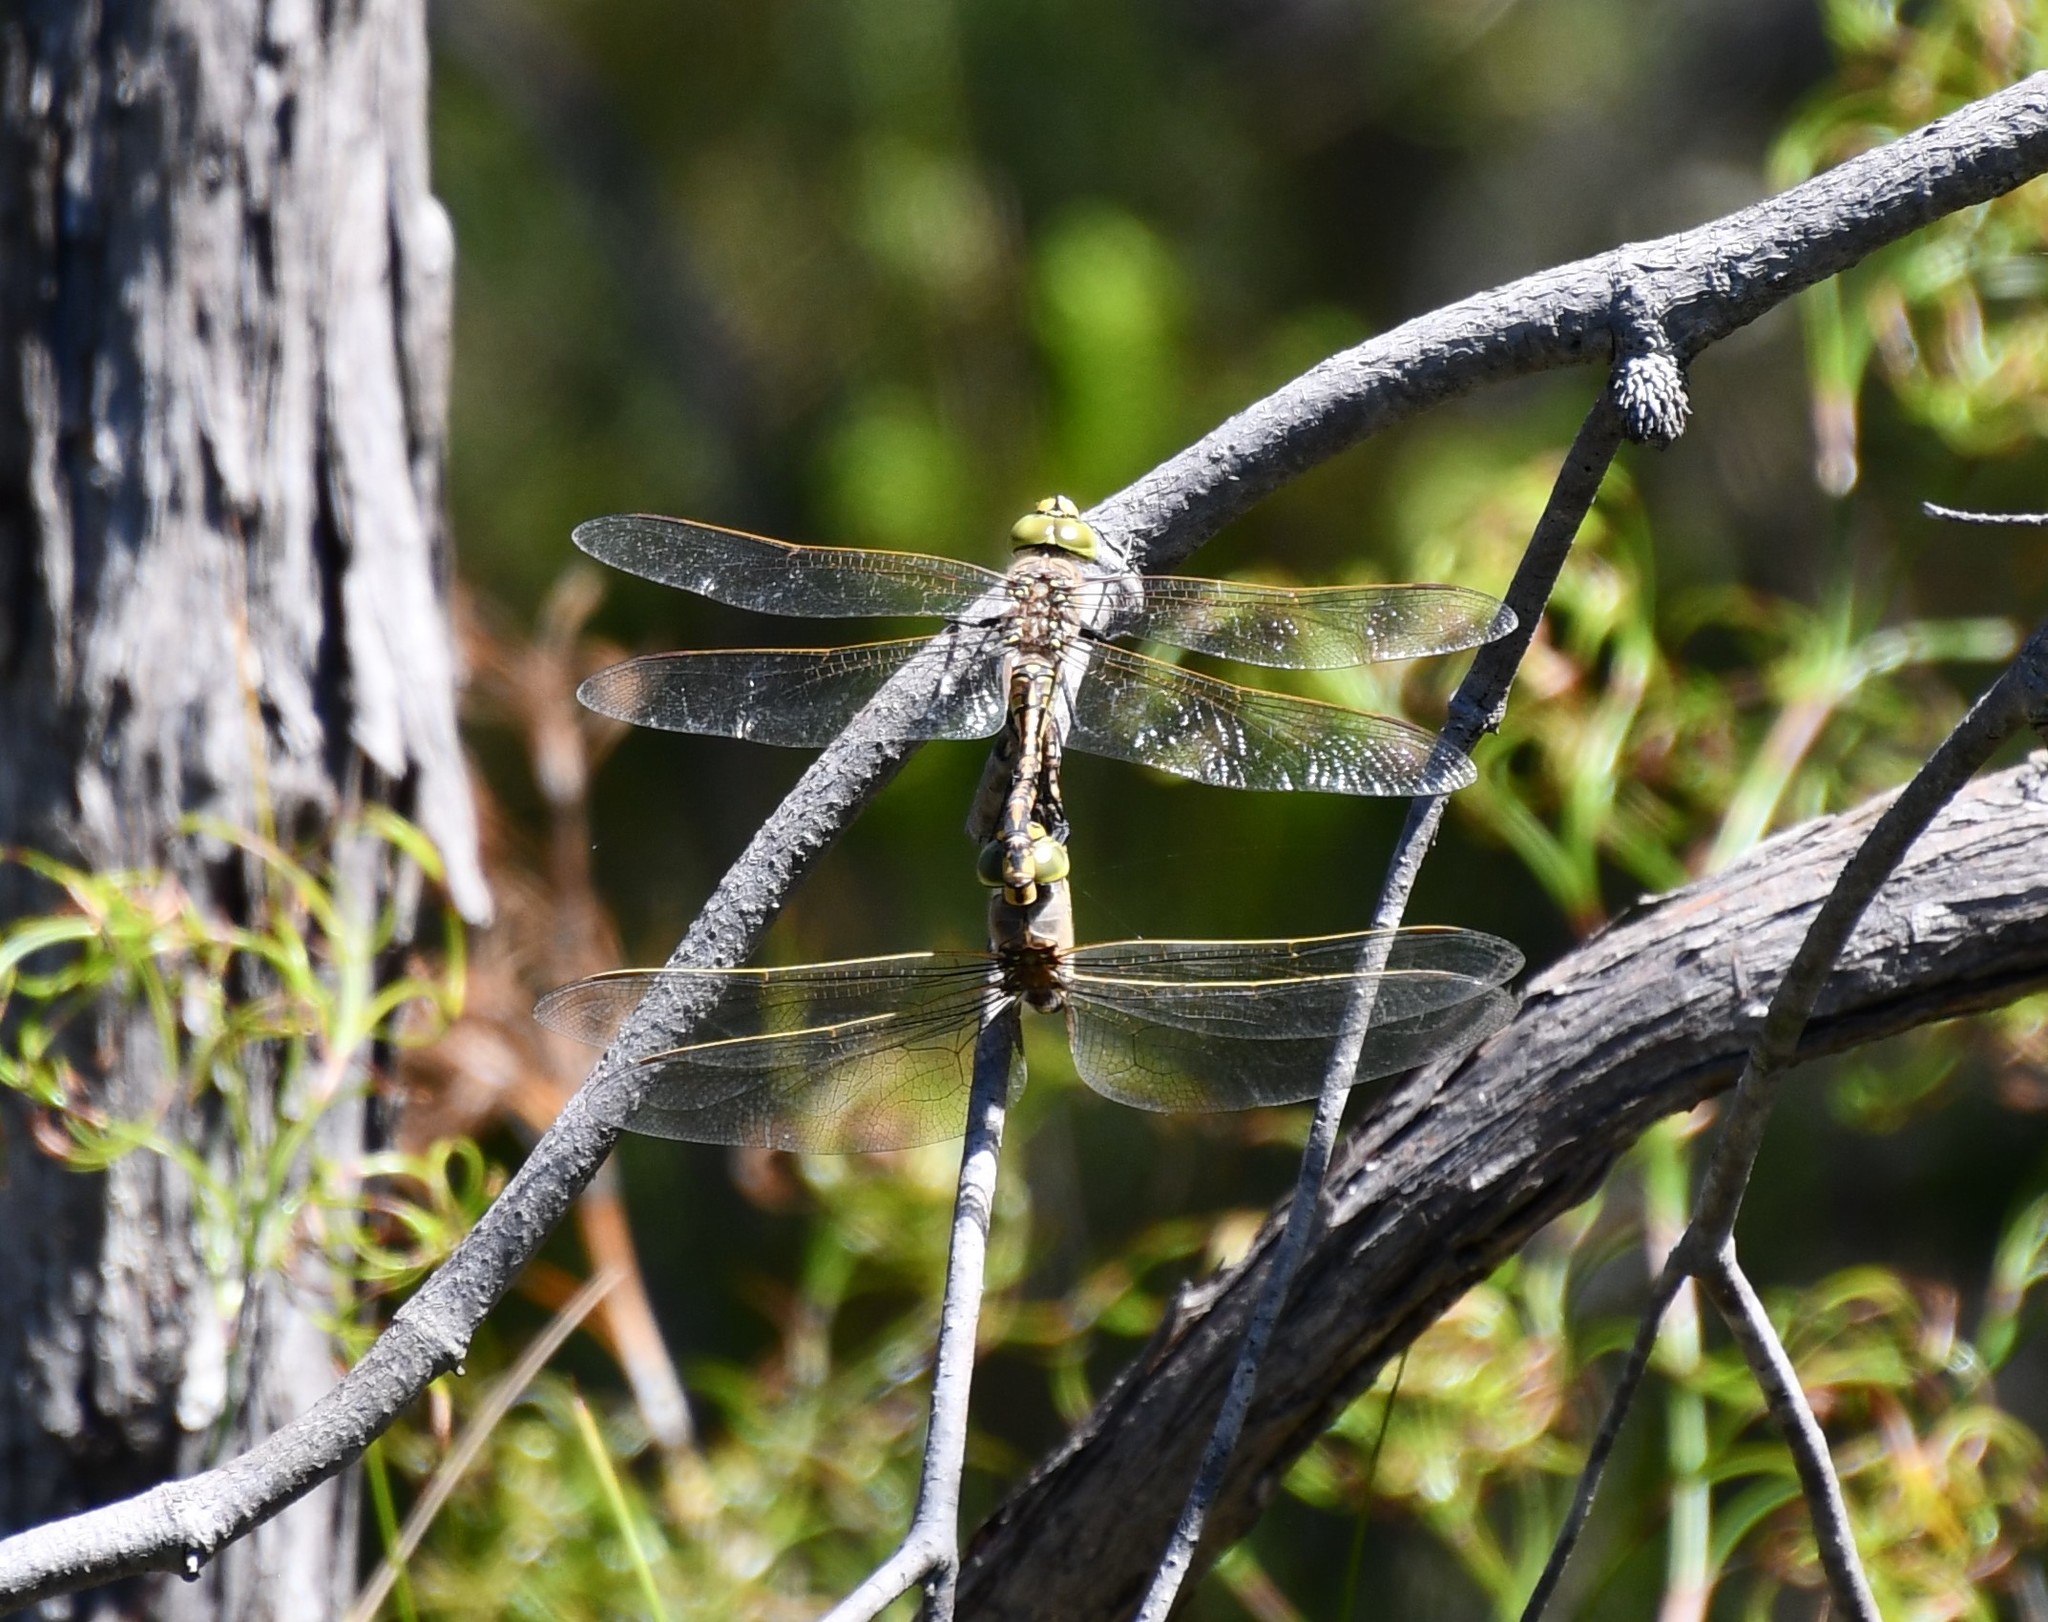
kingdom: Animalia
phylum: Arthropoda
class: Insecta
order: Odonata
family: Aeshnidae
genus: Anax
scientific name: Anax papuensis
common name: Australian emperor
